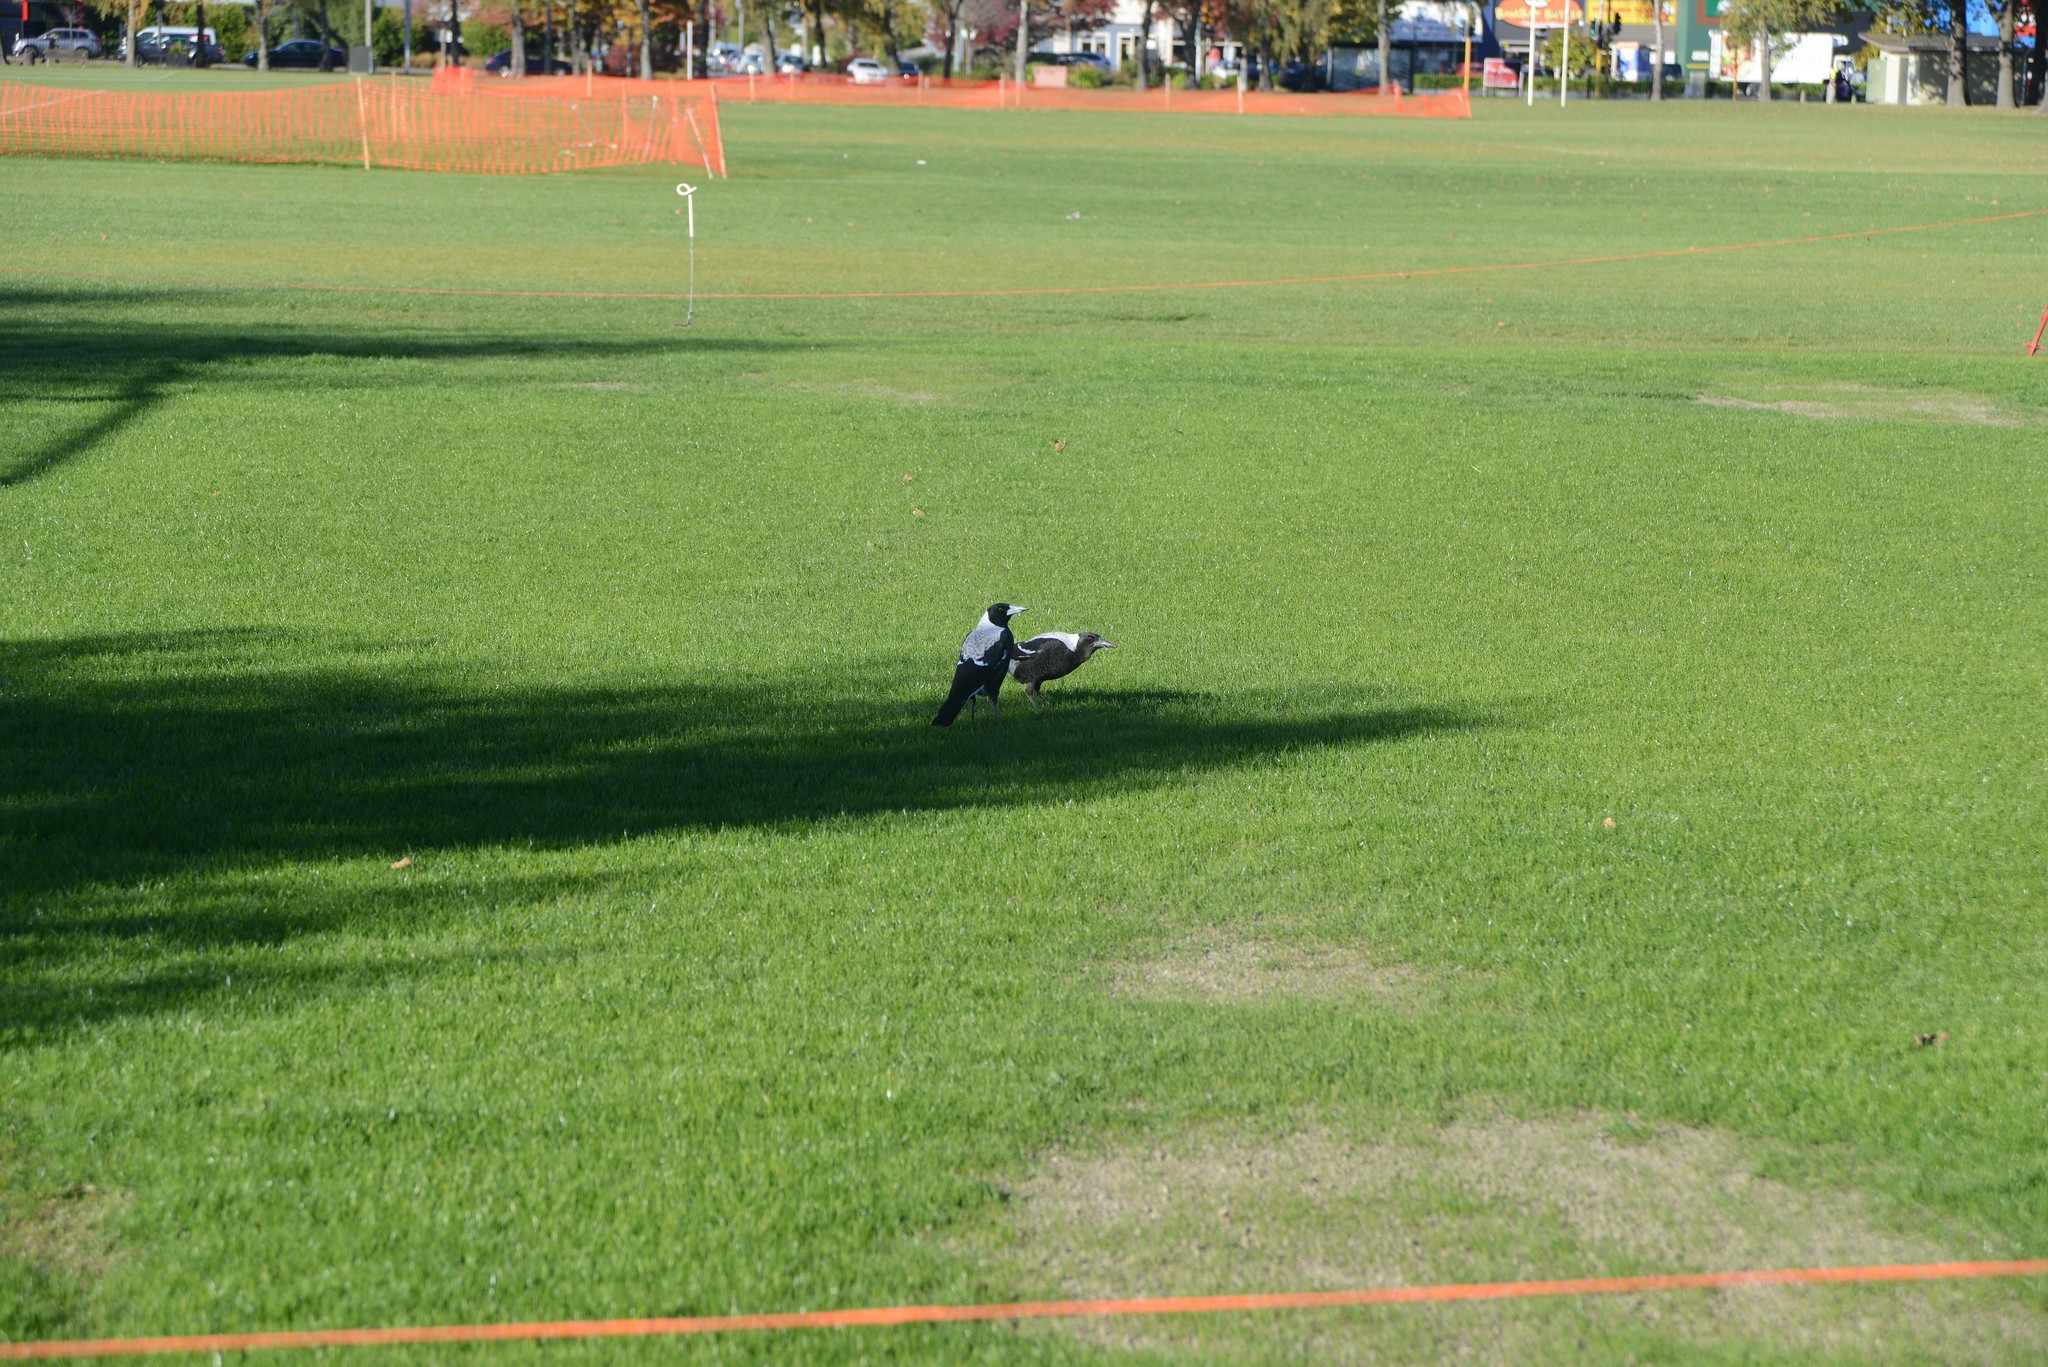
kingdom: Animalia
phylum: Chordata
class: Aves
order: Passeriformes
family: Cracticidae
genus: Gymnorhina
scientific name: Gymnorhina tibicen
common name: Australian magpie
